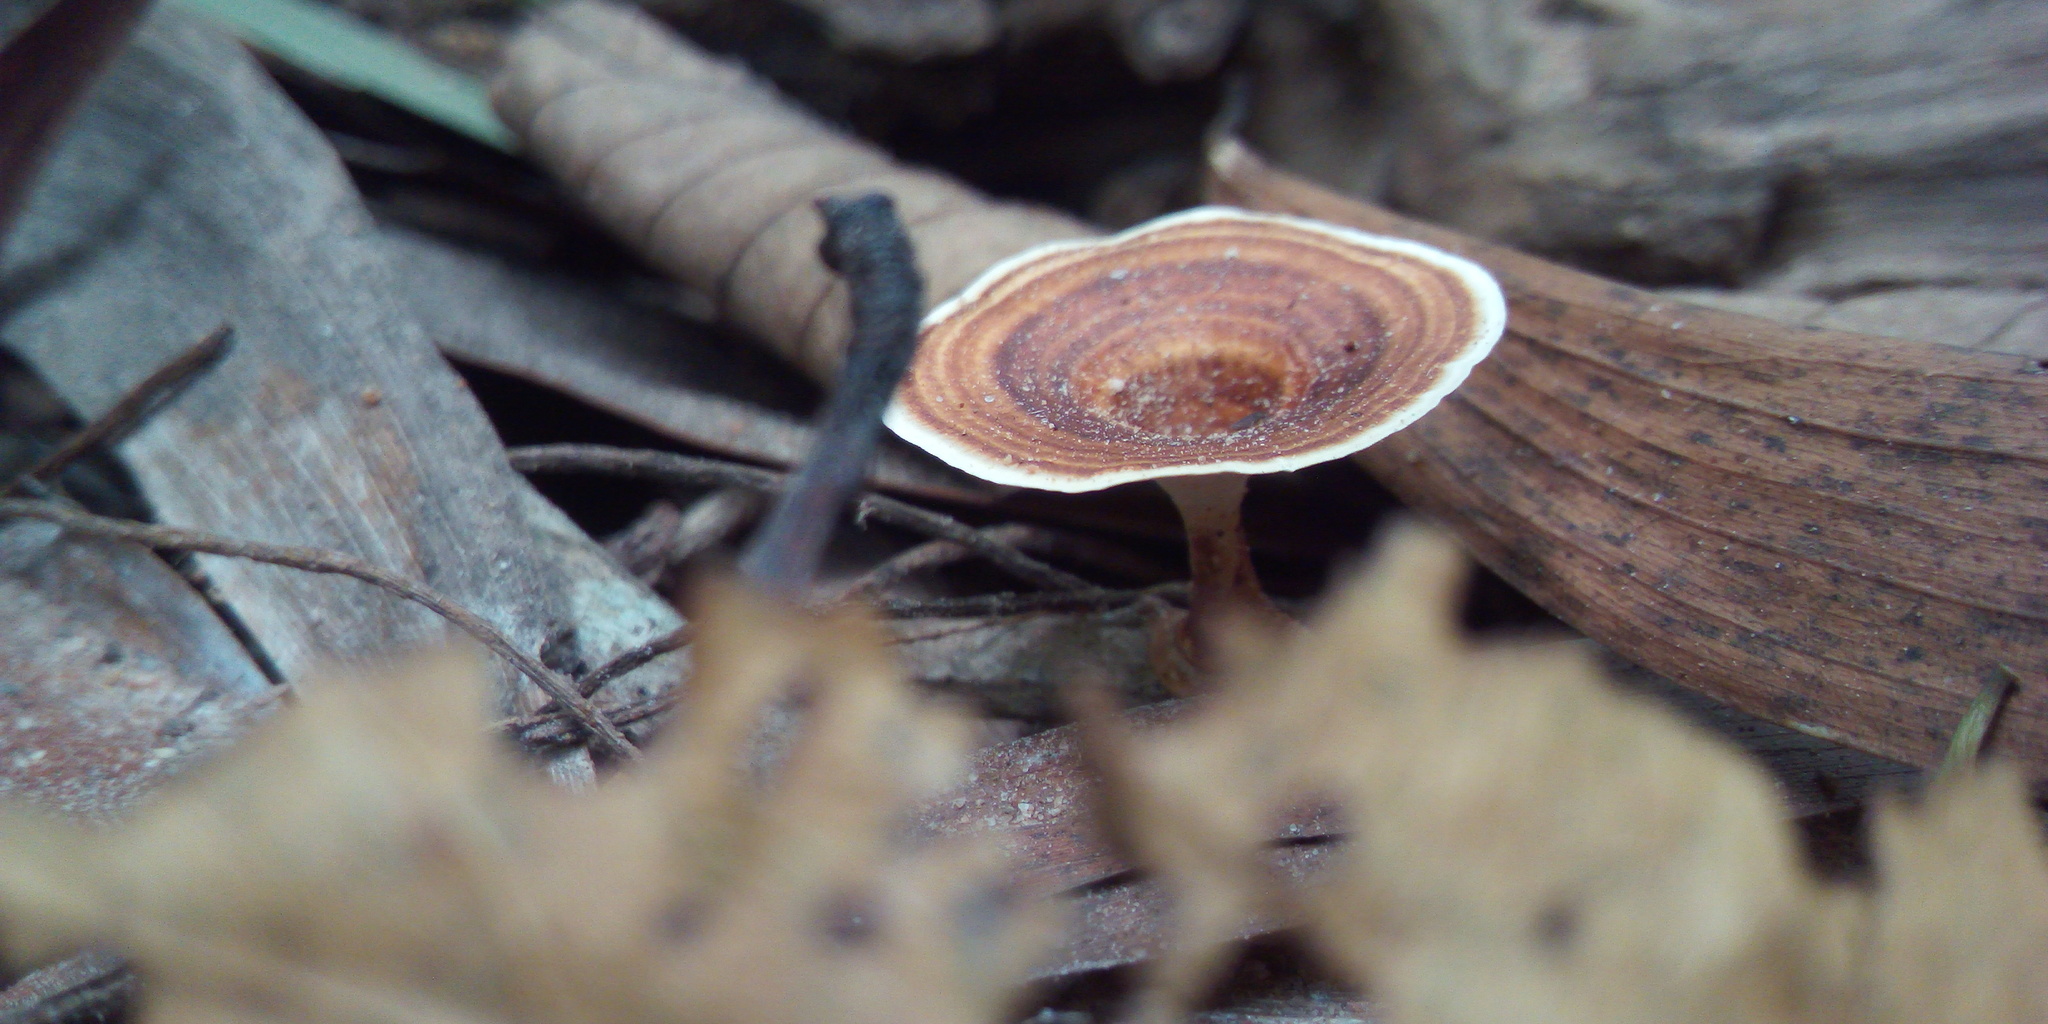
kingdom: Fungi
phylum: Basidiomycota
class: Agaricomycetes
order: Polyporales
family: Polyporaceae
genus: Microporus
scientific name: Microporus xanthopus
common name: Yellow-stemmed micropore
